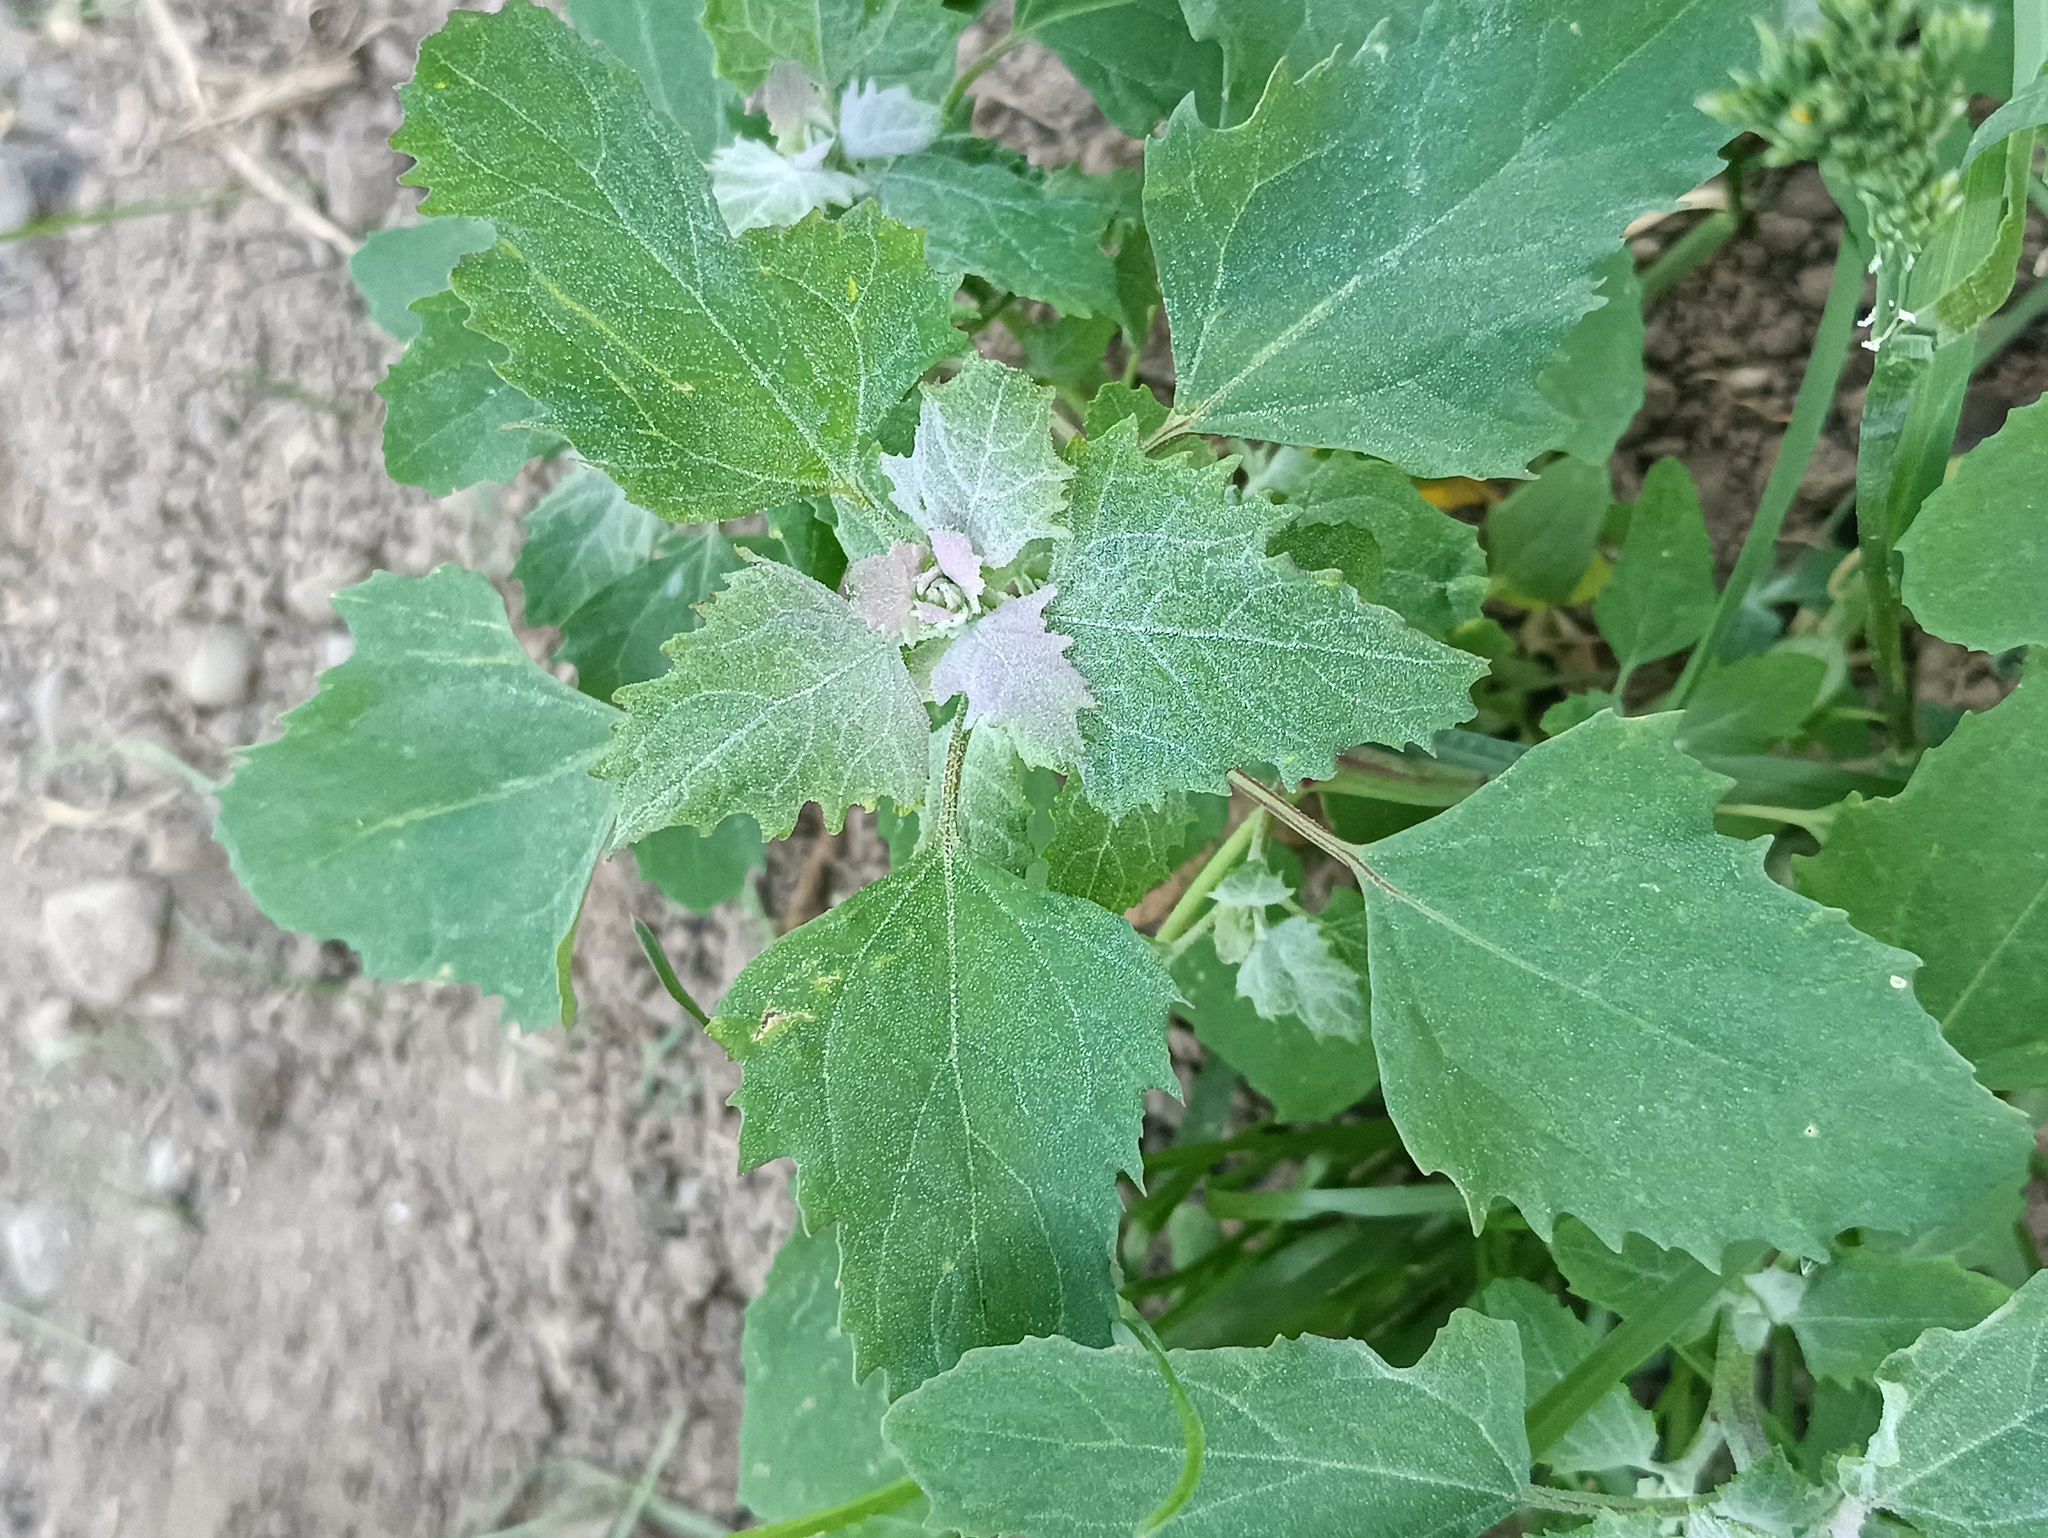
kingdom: Plantae
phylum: Tracheophyta
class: Magnoliopsida
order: Caryophyllales
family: Amaranthaceae
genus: Chenopodium
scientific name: Chenopodium album
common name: Fat-hen
